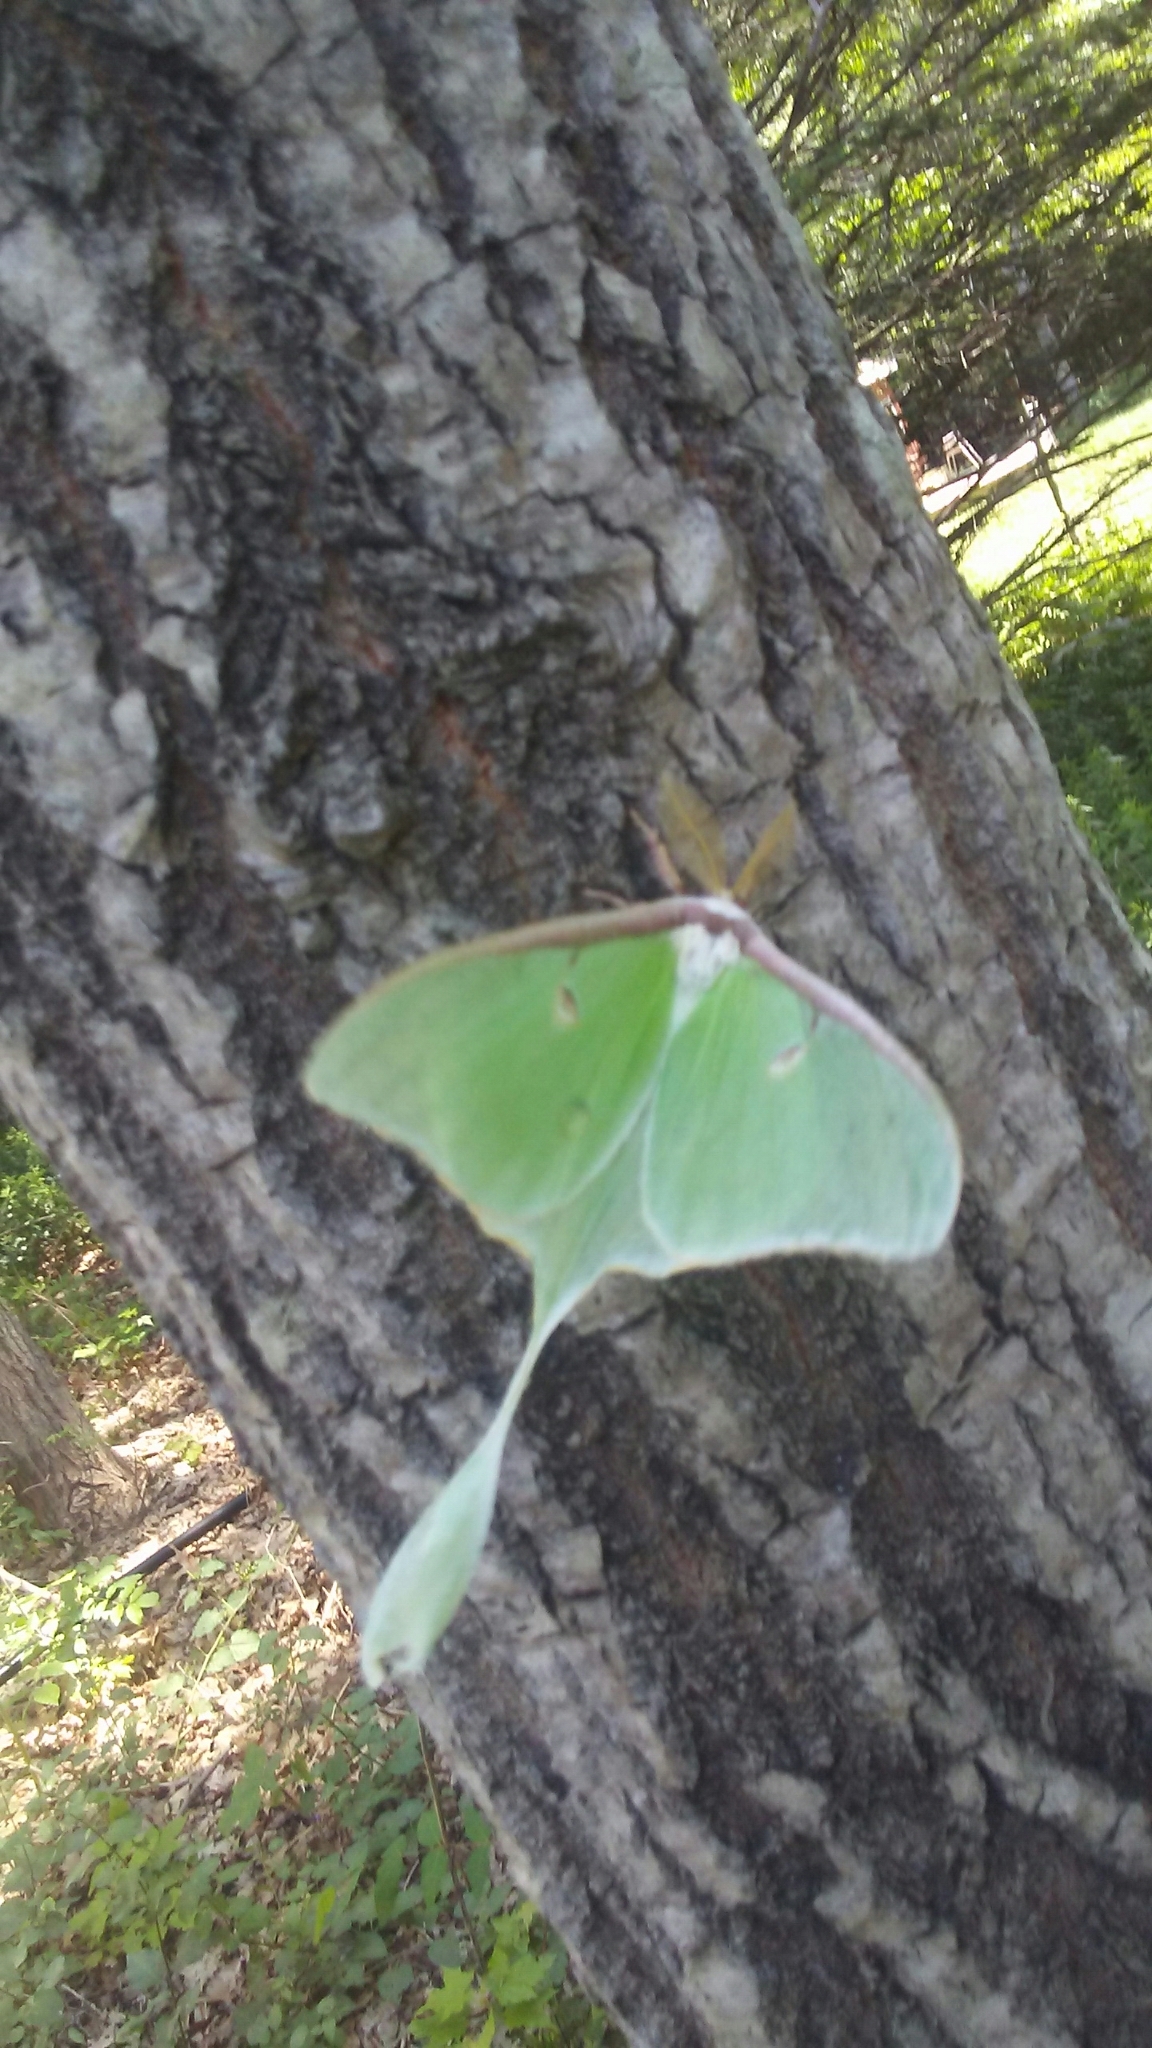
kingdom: Animalia
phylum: Arthropoda
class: Insecta
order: Lepidoptera
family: Saturniidae
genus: Actias
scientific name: Actias luna
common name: Luna moth
